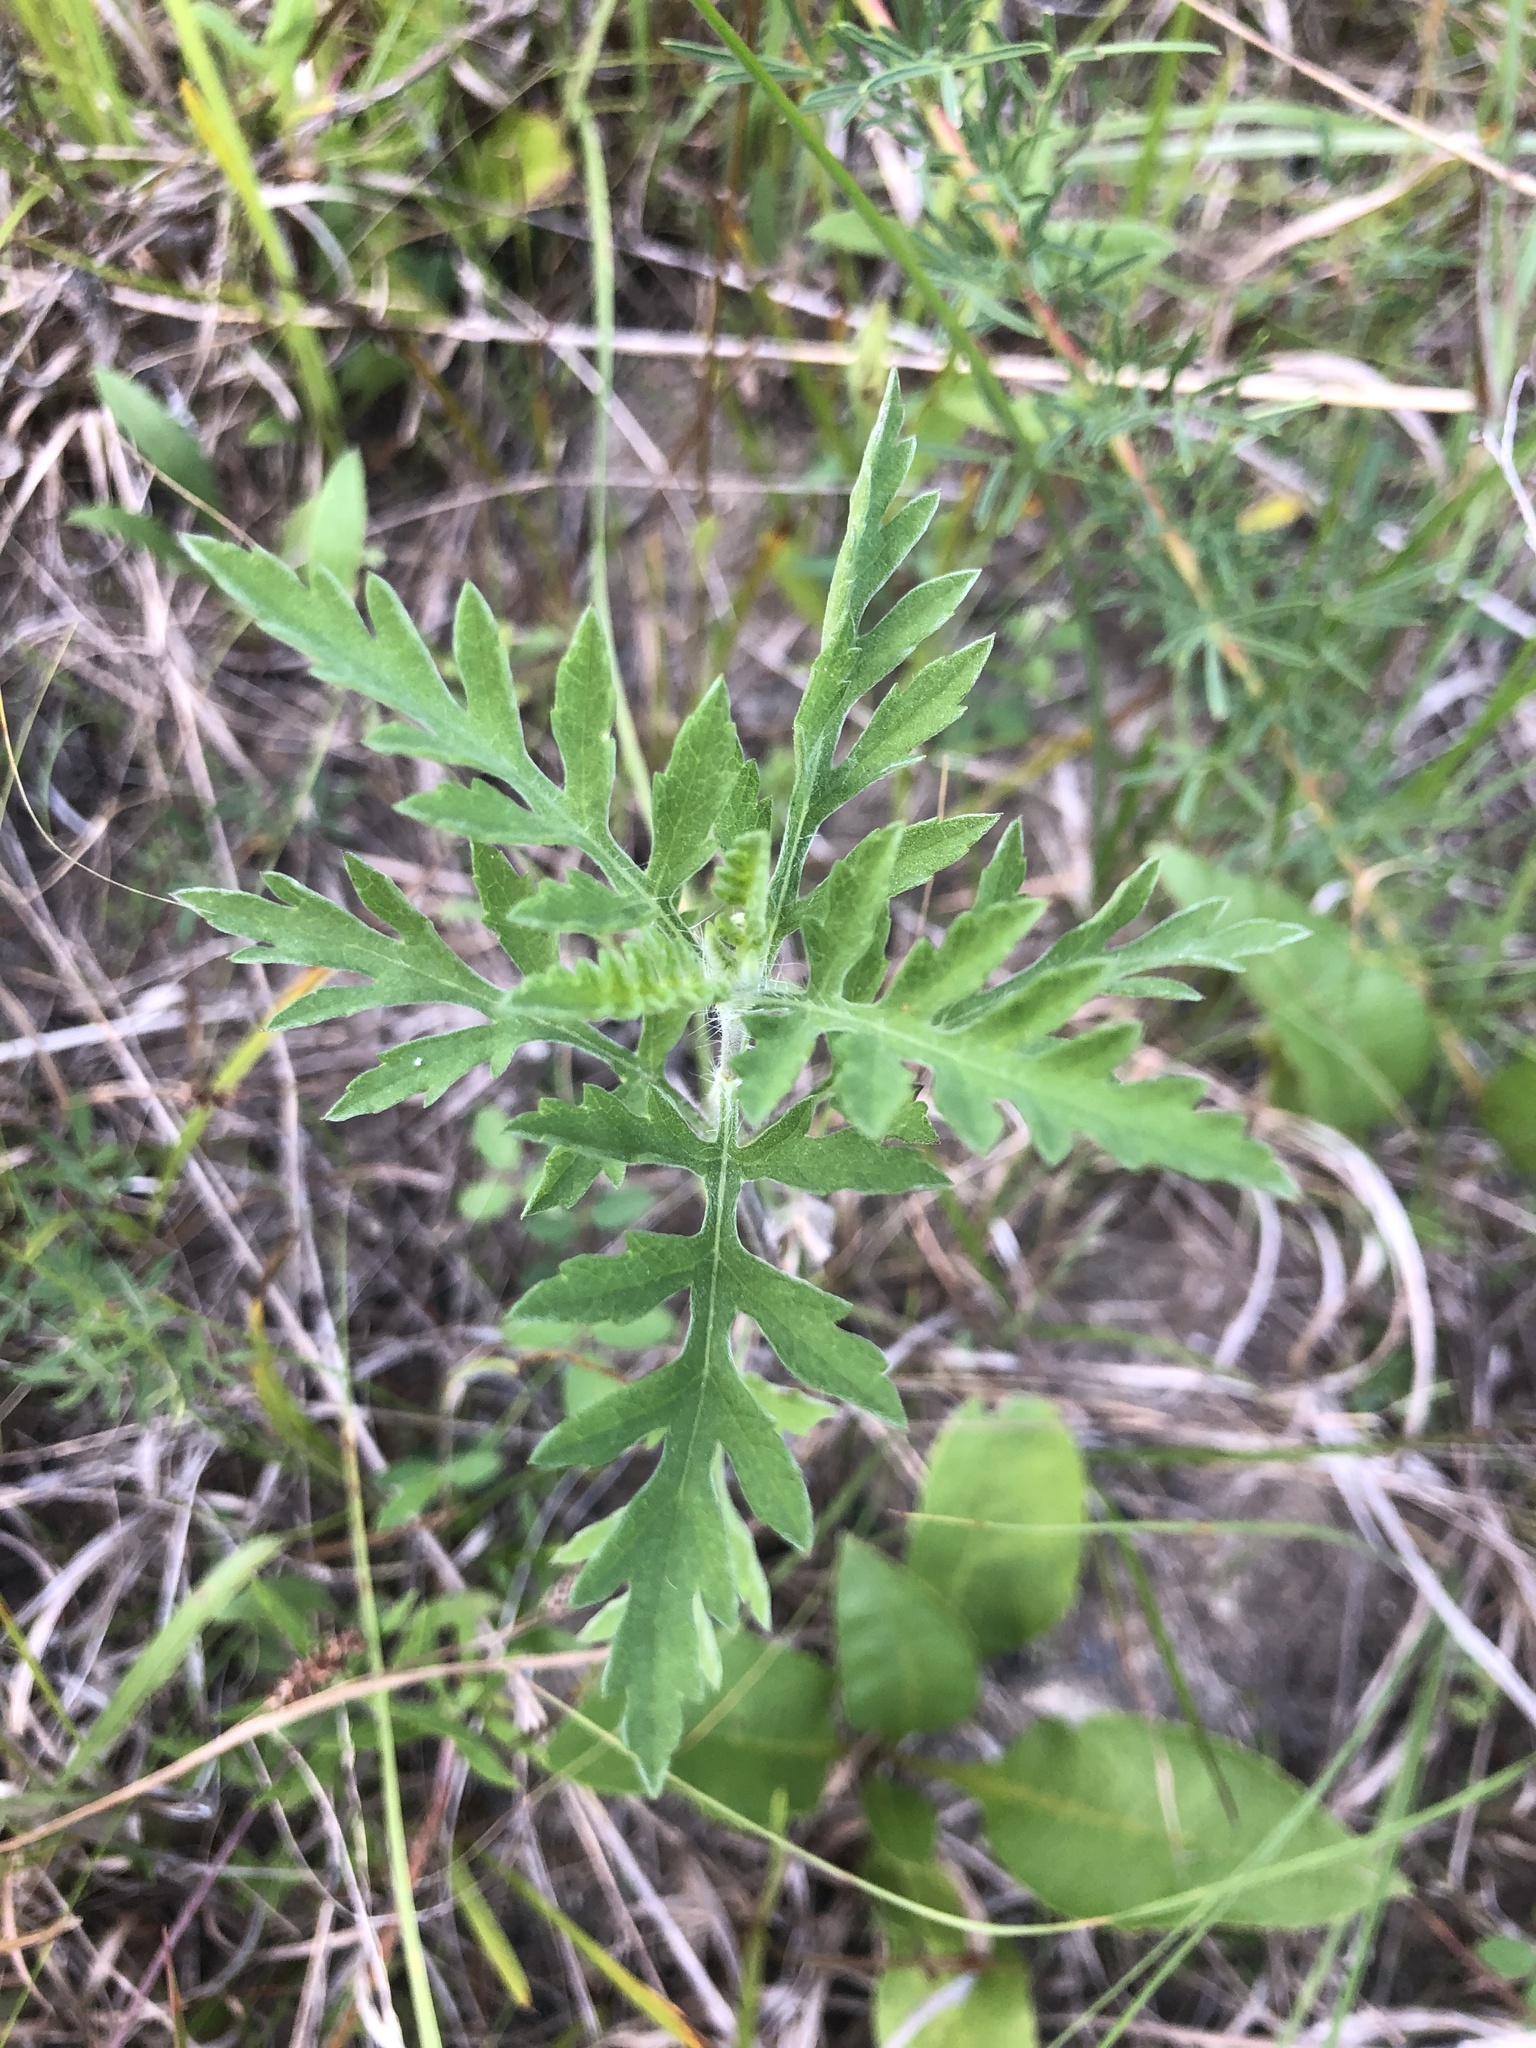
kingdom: Plantae
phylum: Tracheophyta
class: Magnoliopsida
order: Asterales
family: Asteraceae
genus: Ambrosia
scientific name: Ambrosia psilostachya
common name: Perennial ragweed
